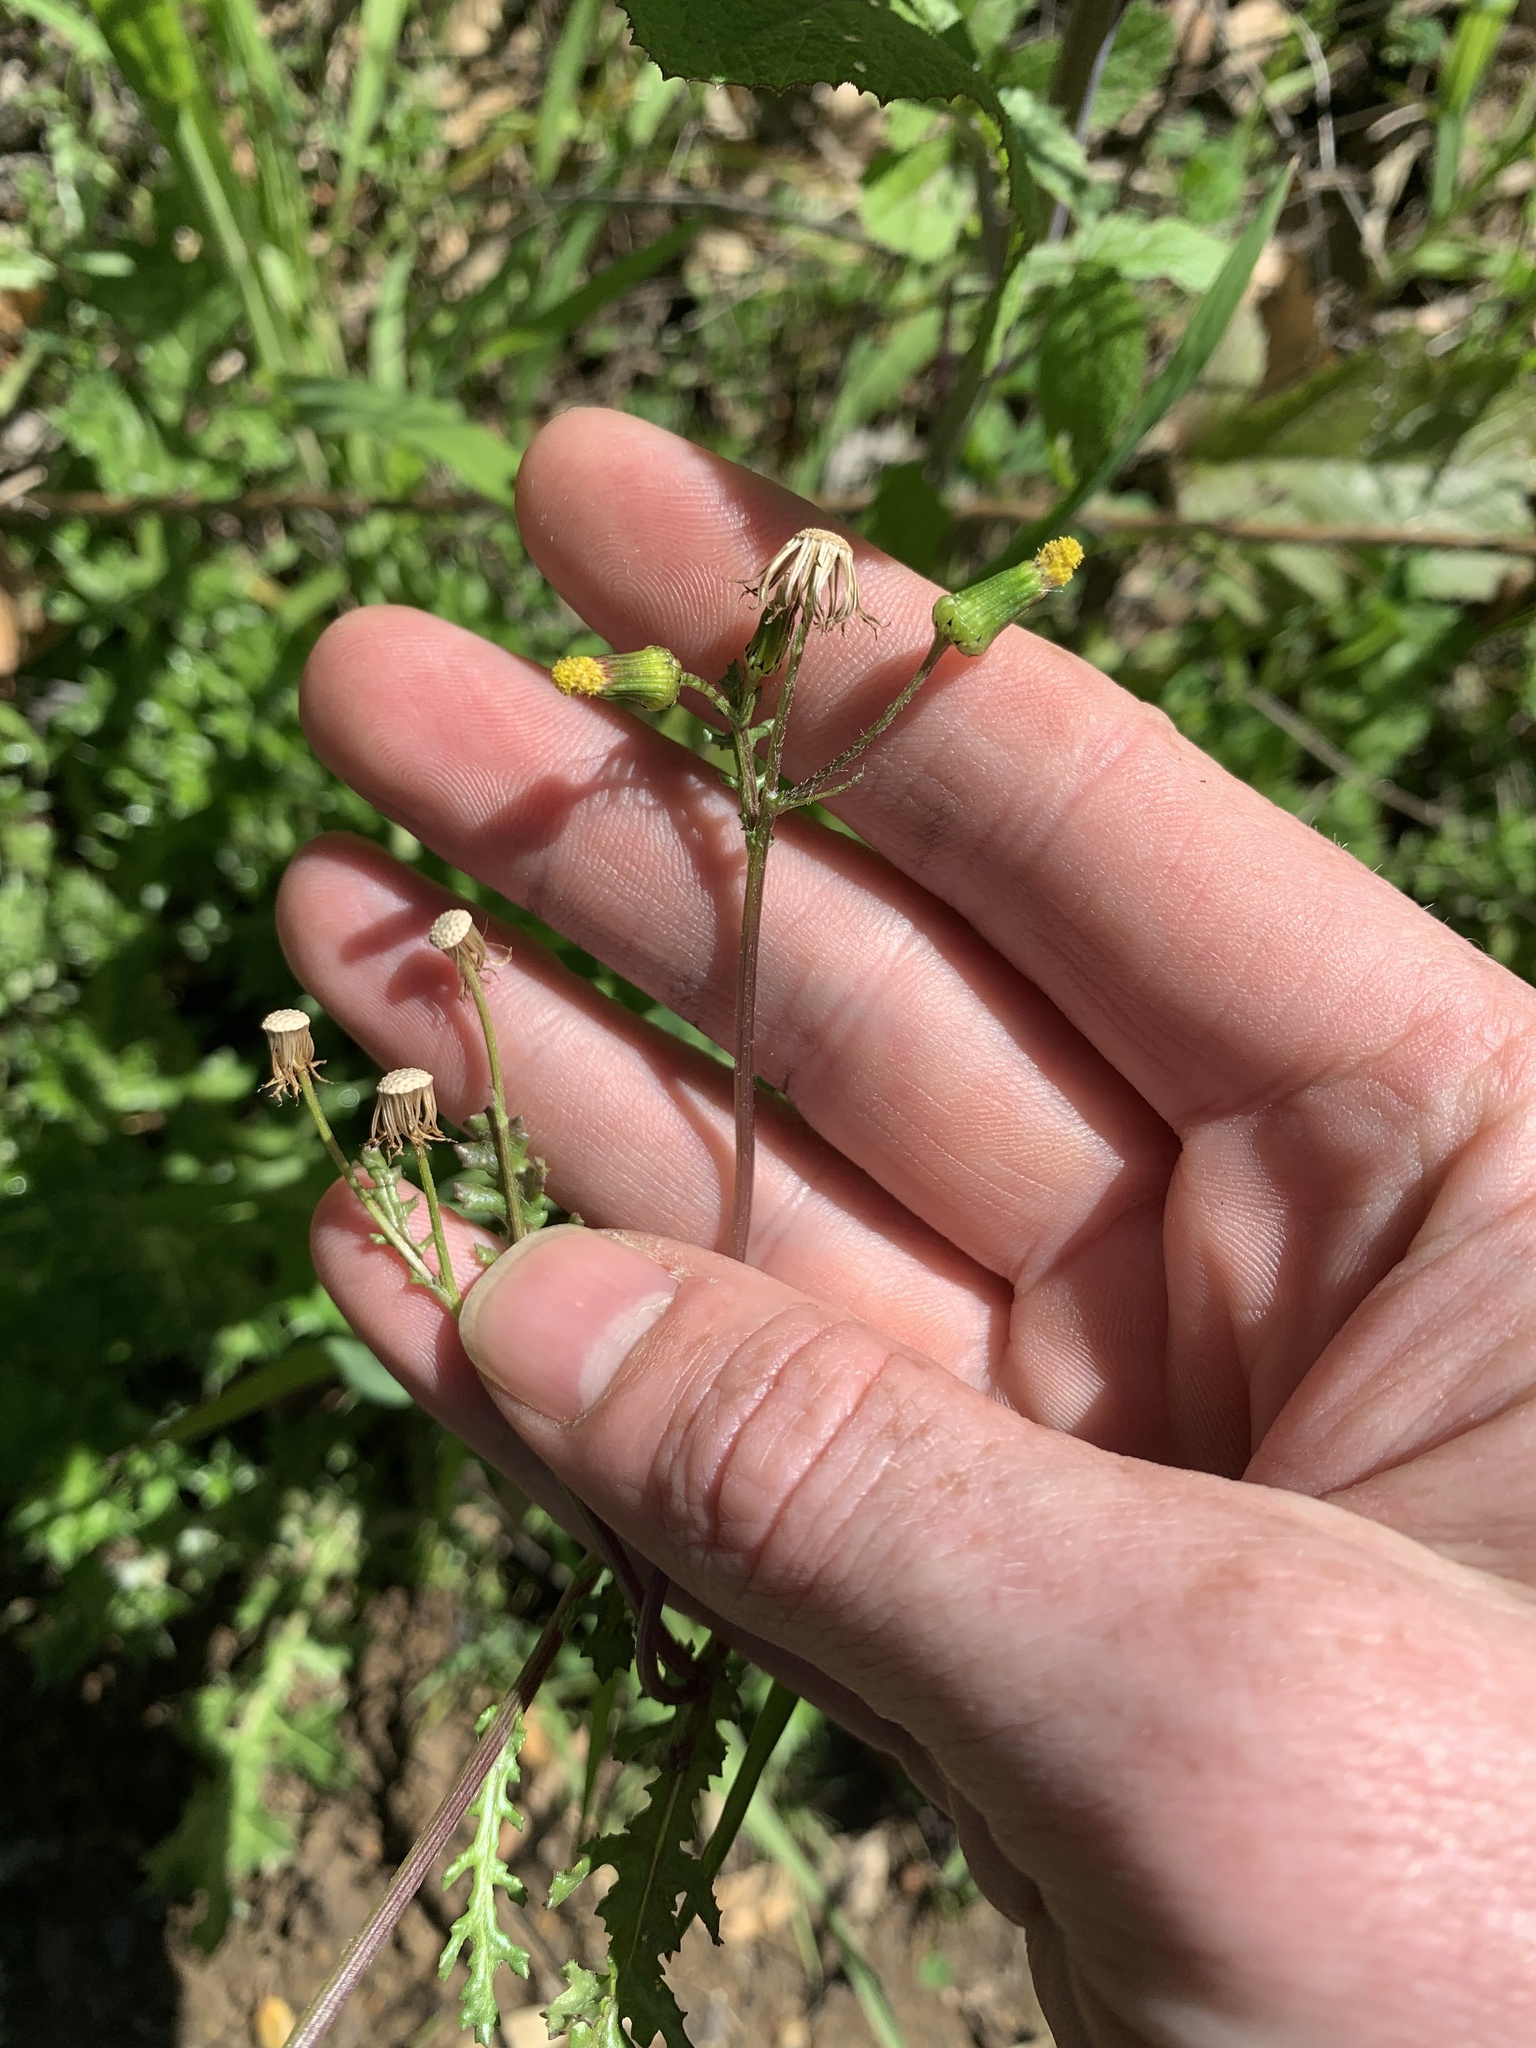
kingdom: Plantae
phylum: Tracheophyta
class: Magnoliopsida
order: Asterales
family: Asteraceae
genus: Senecio
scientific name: Senecio vulgaris
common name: Old-man-in-the-spring
